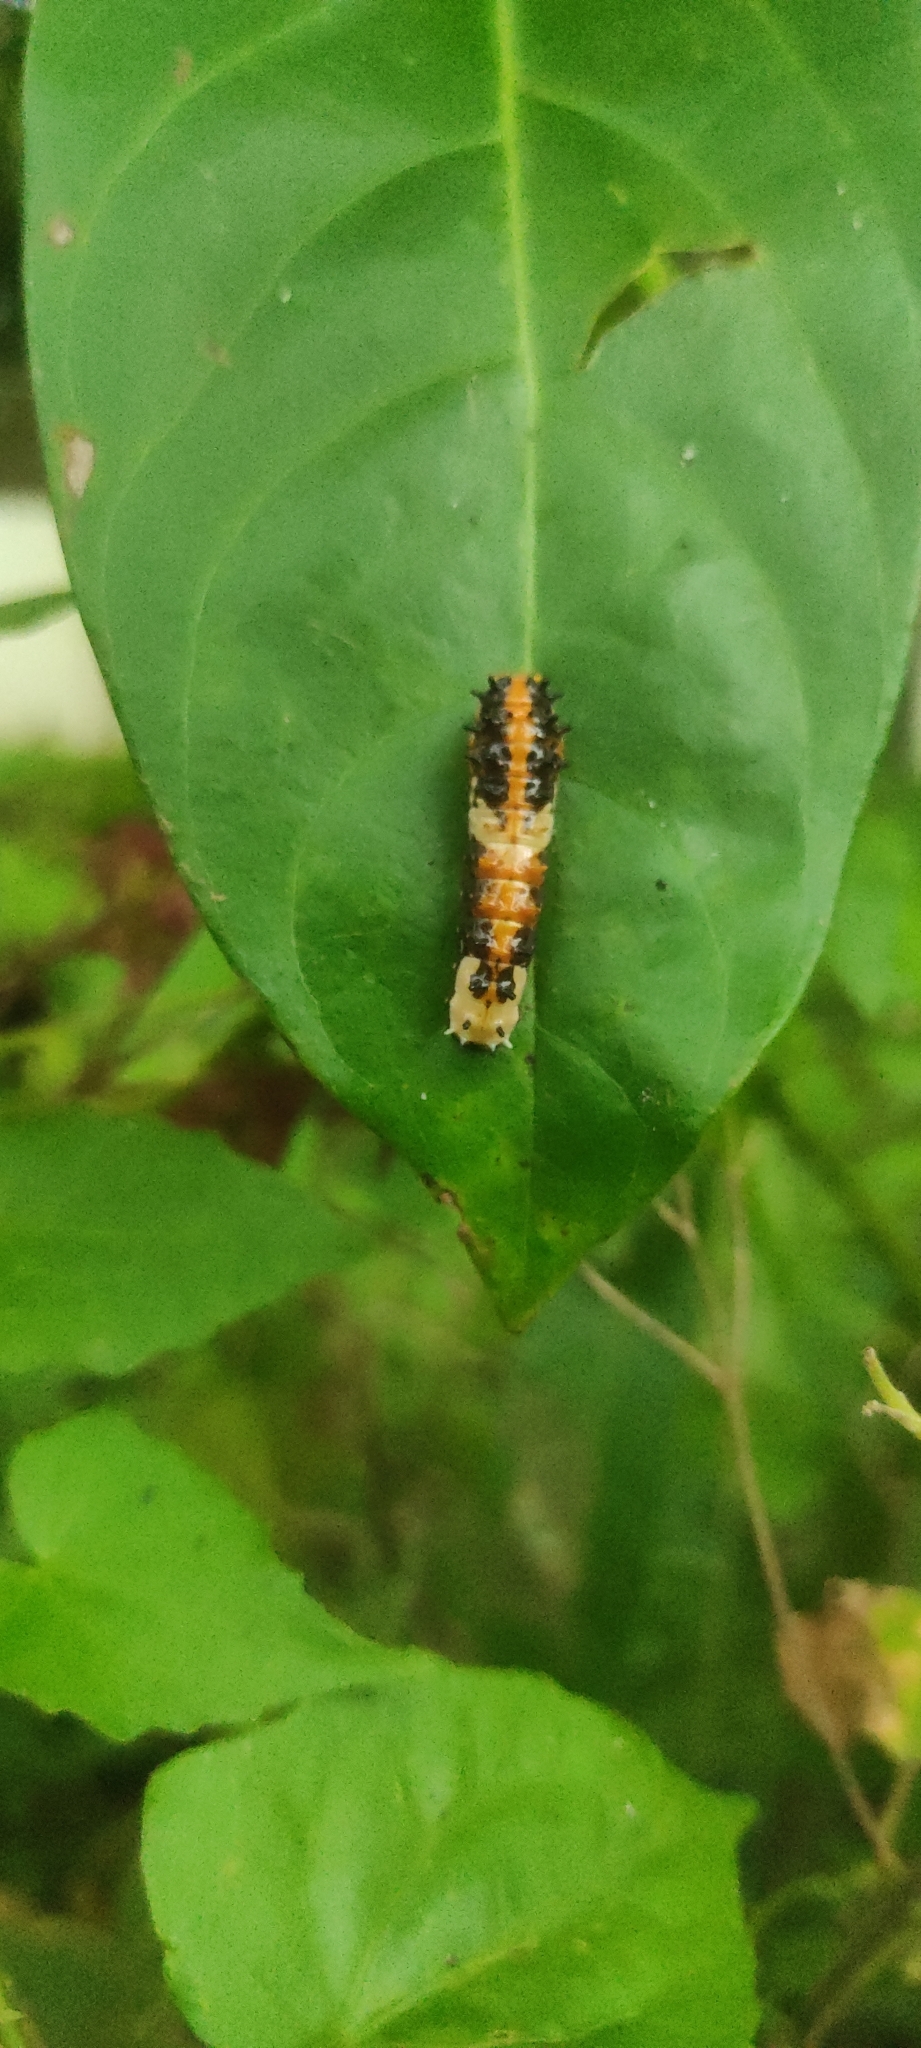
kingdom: Animalia
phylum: Arthropoda
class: Insecta
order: Lepidoptera
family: Papilionidae
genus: Chilasa
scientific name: Chilasa clytia
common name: Common mime
